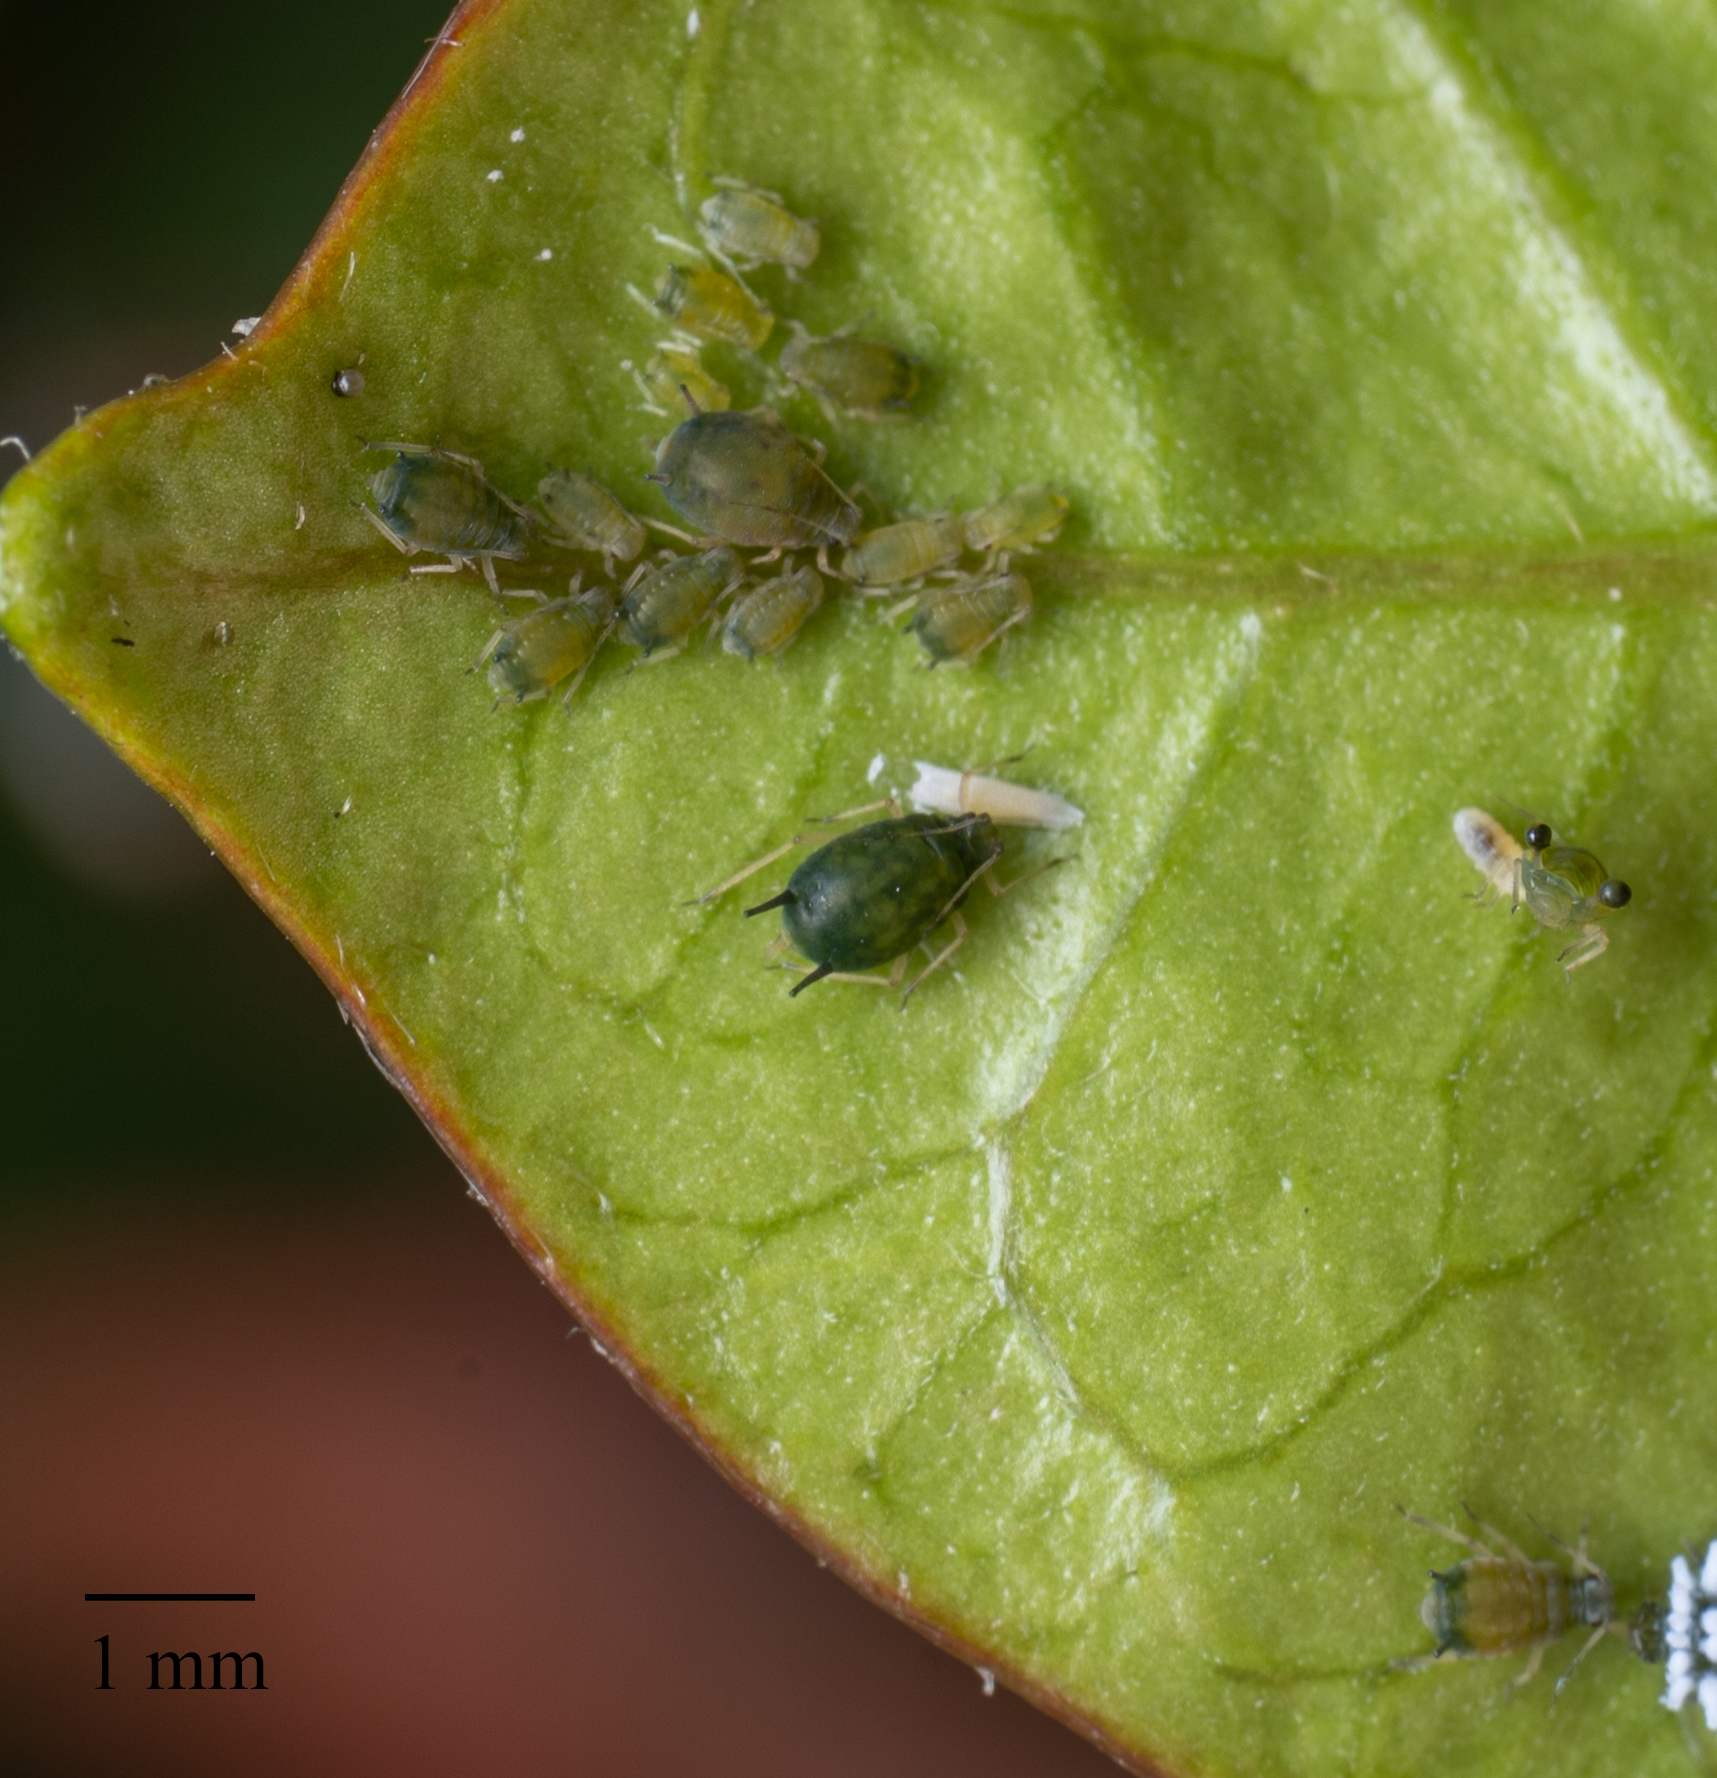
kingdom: Animalia
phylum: Arthropoda
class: Insecta
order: Hemiptera
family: Aphididae
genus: Aphis
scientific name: Aphis gossypii
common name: Melon aphid
